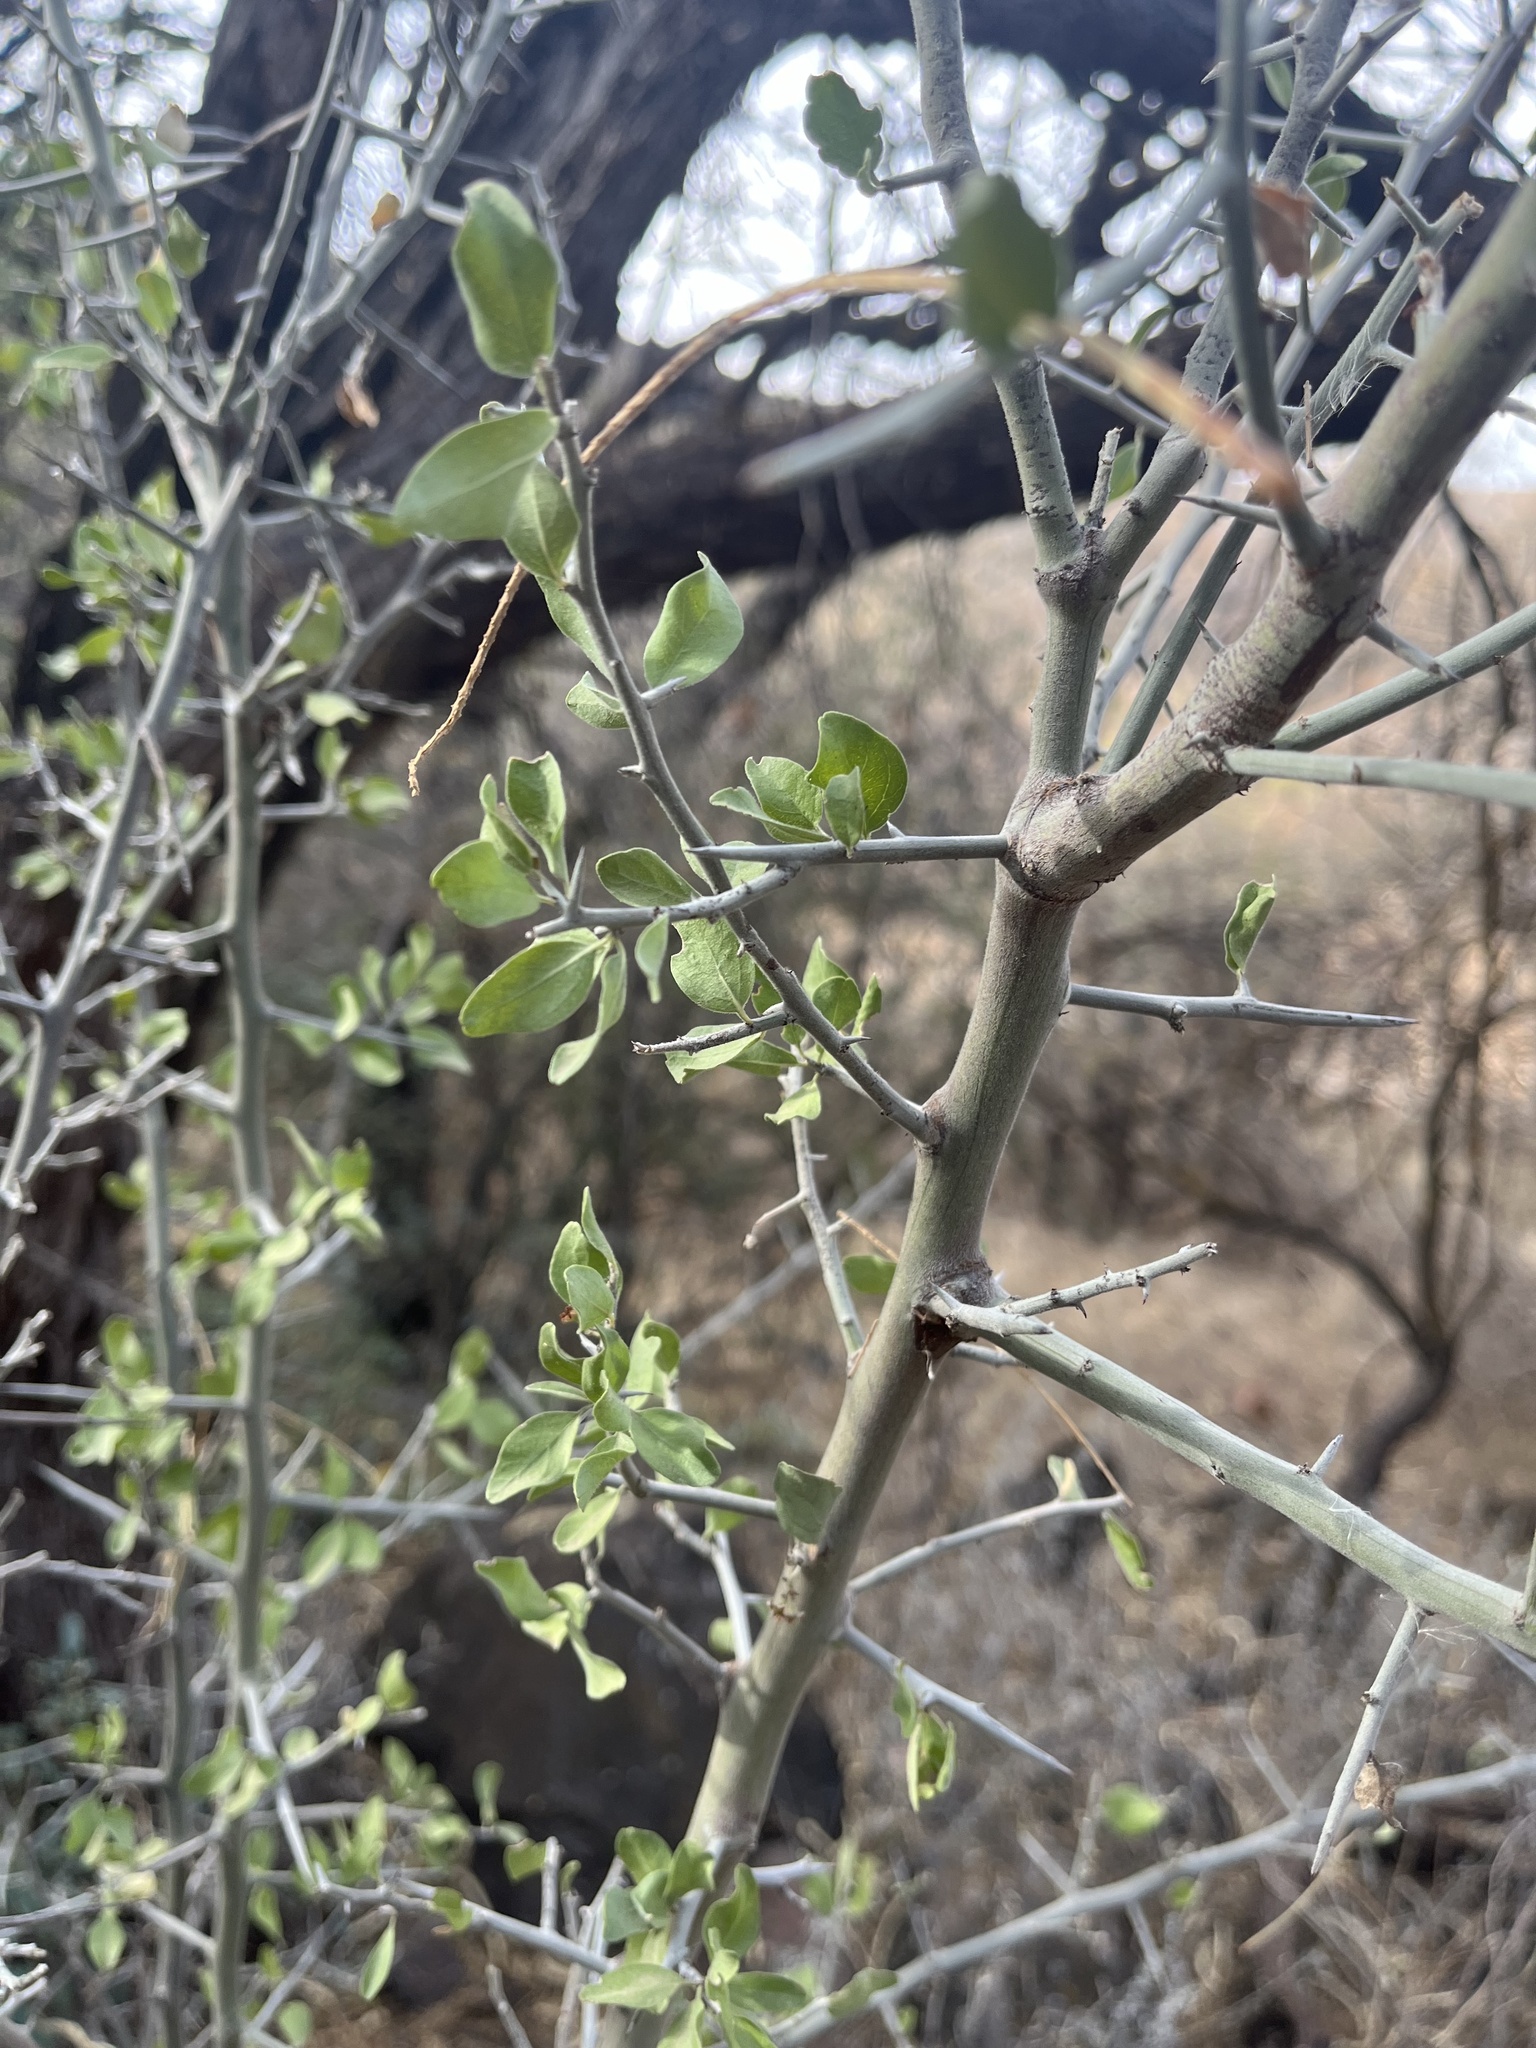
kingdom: Plantae
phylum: Tracheophyta
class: Magnoliopsida
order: Rosales
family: Rhamnaceae
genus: Sarcomphalus
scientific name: Sarcomphalus obtusifolius
